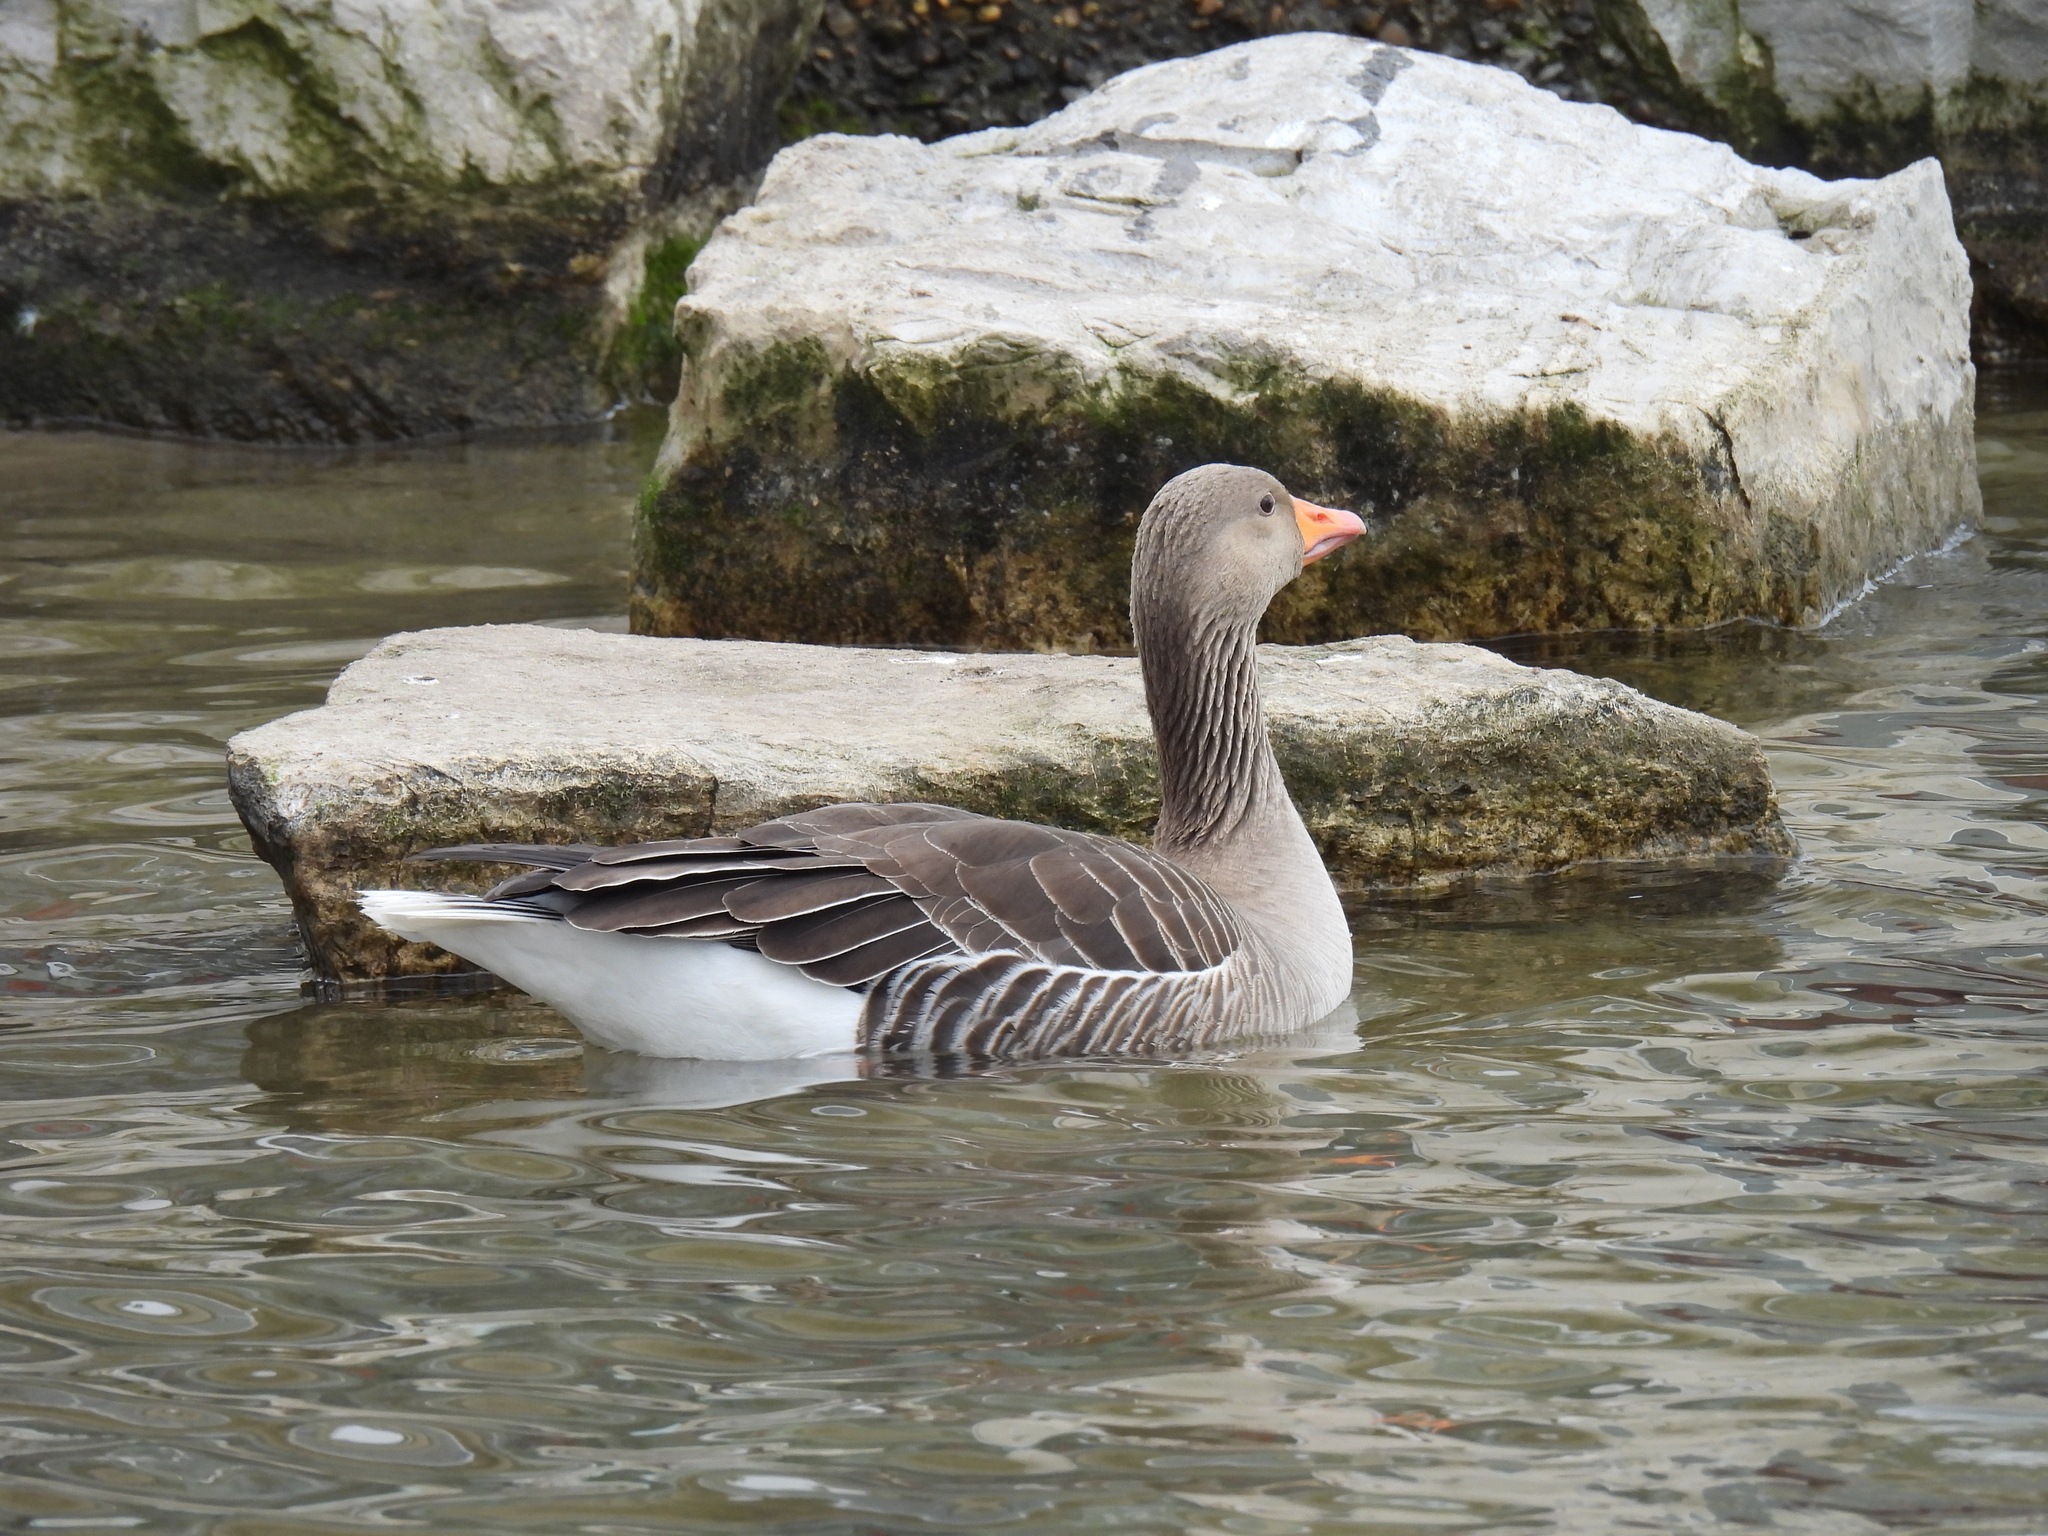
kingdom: Animalia
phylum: Chordata
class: Aves
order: Anseriformes
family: Anatidae
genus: Anser
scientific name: Anser anser
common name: Greylag goose
